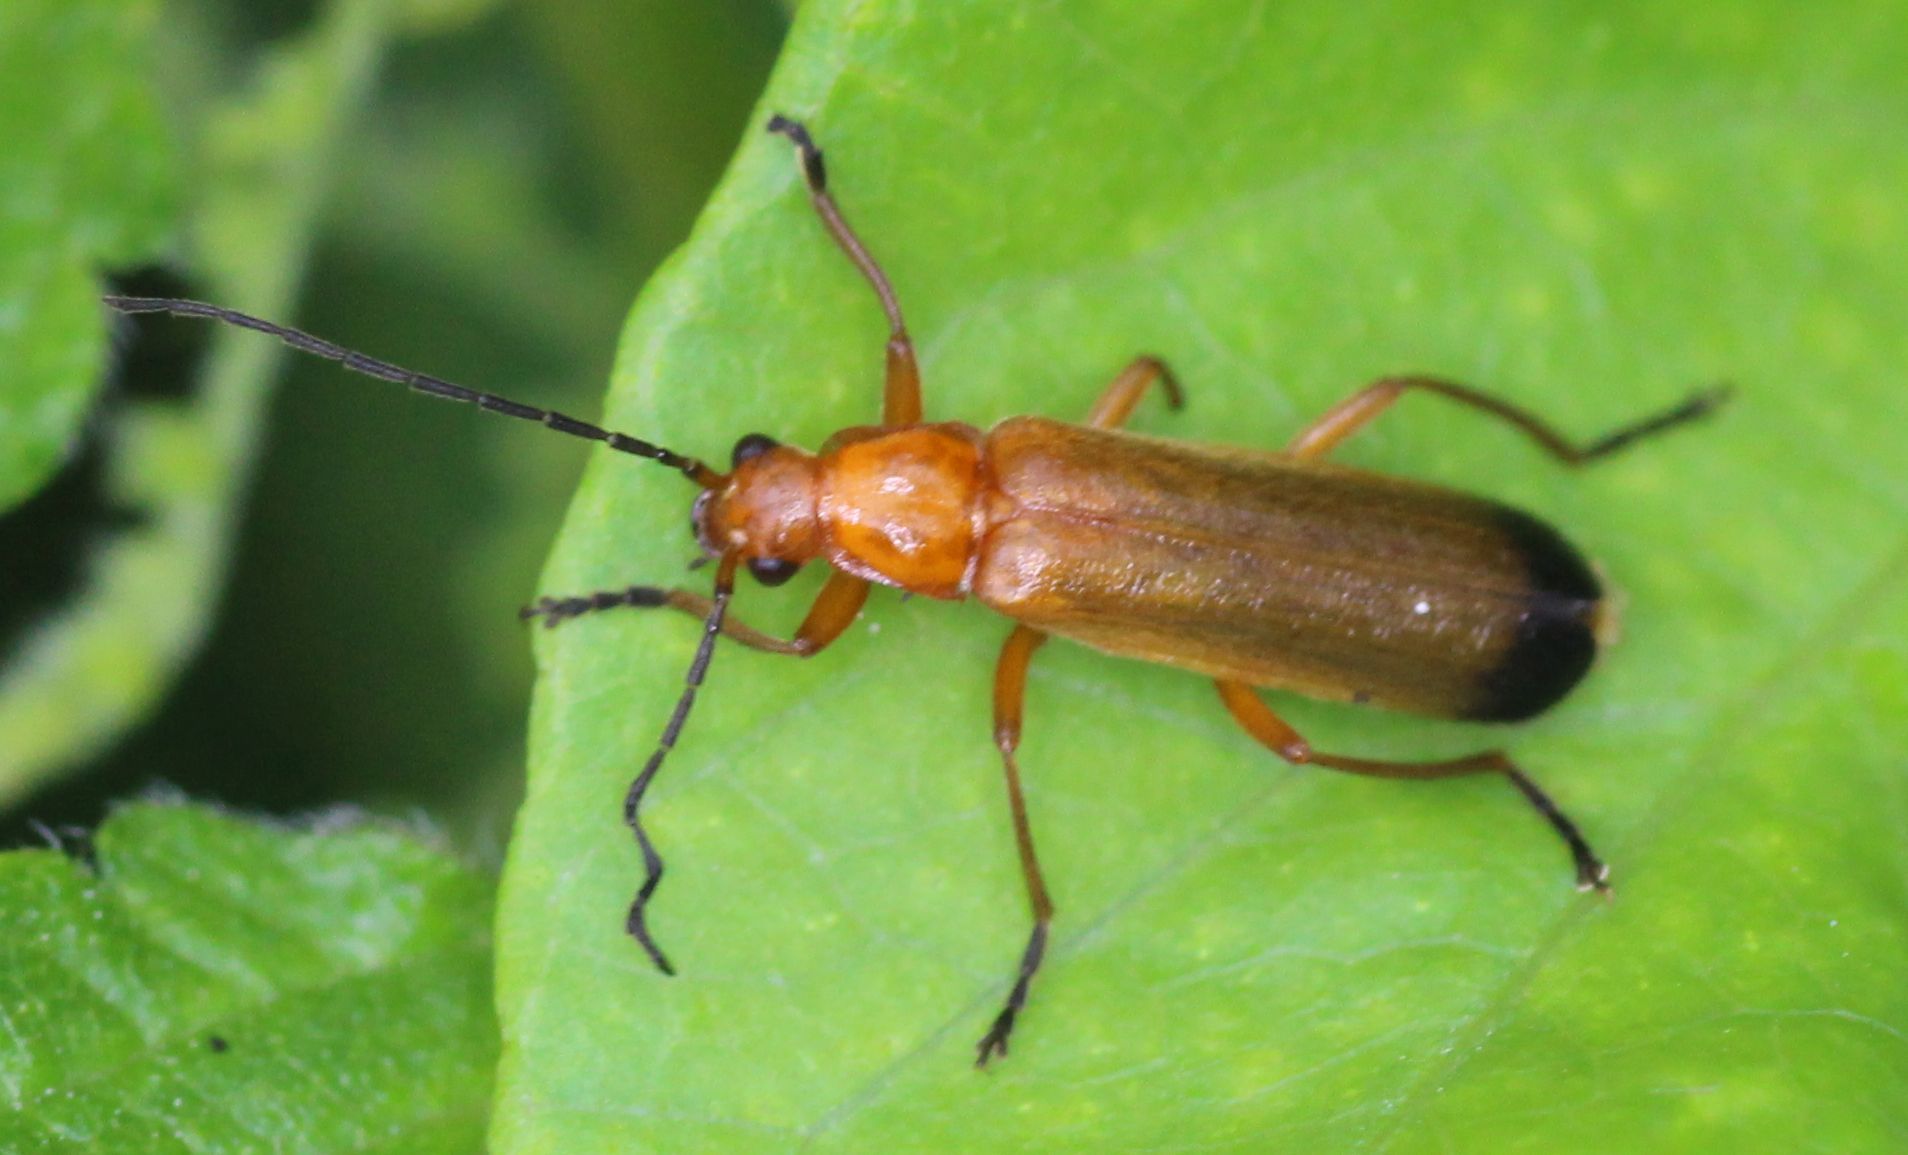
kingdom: Animalia
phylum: Arthropoda
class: Insecta
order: Coleoptera
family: Cantharidae
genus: Rhagonycha
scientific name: Rhagonycha fulva
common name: Common red soldier beetle
